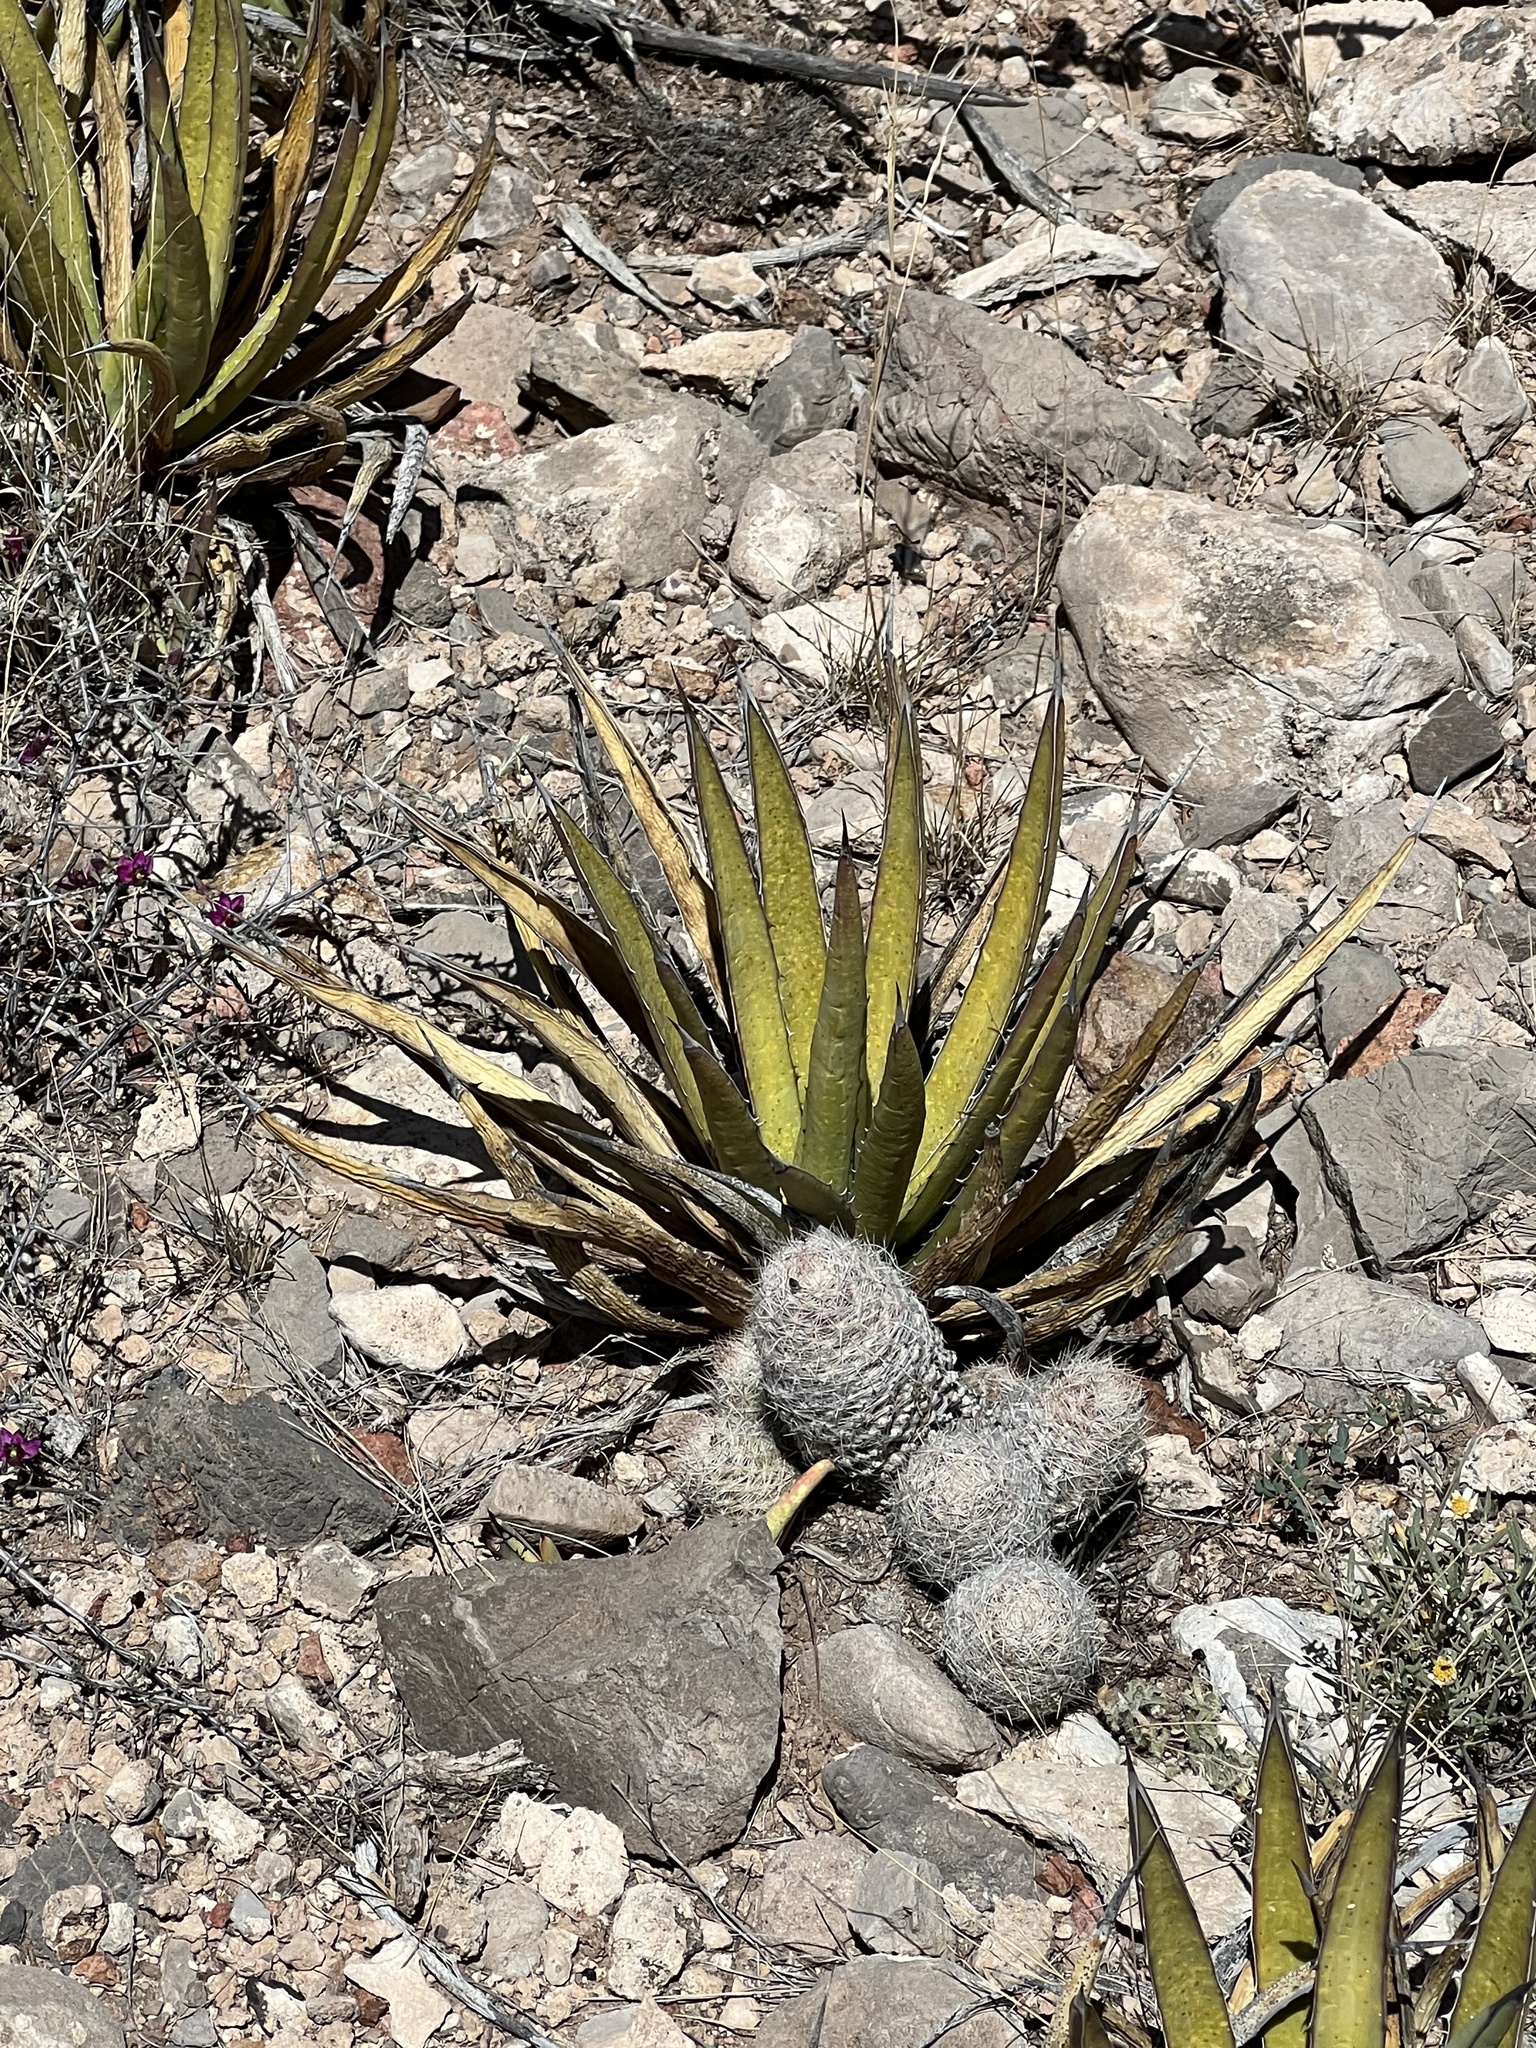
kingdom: Plantae
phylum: Tracheophyta
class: Liliopsida
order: Asparagales
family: Asparagaceae
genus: Agave
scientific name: Agave lechuguilla
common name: Lecheguilla agave
